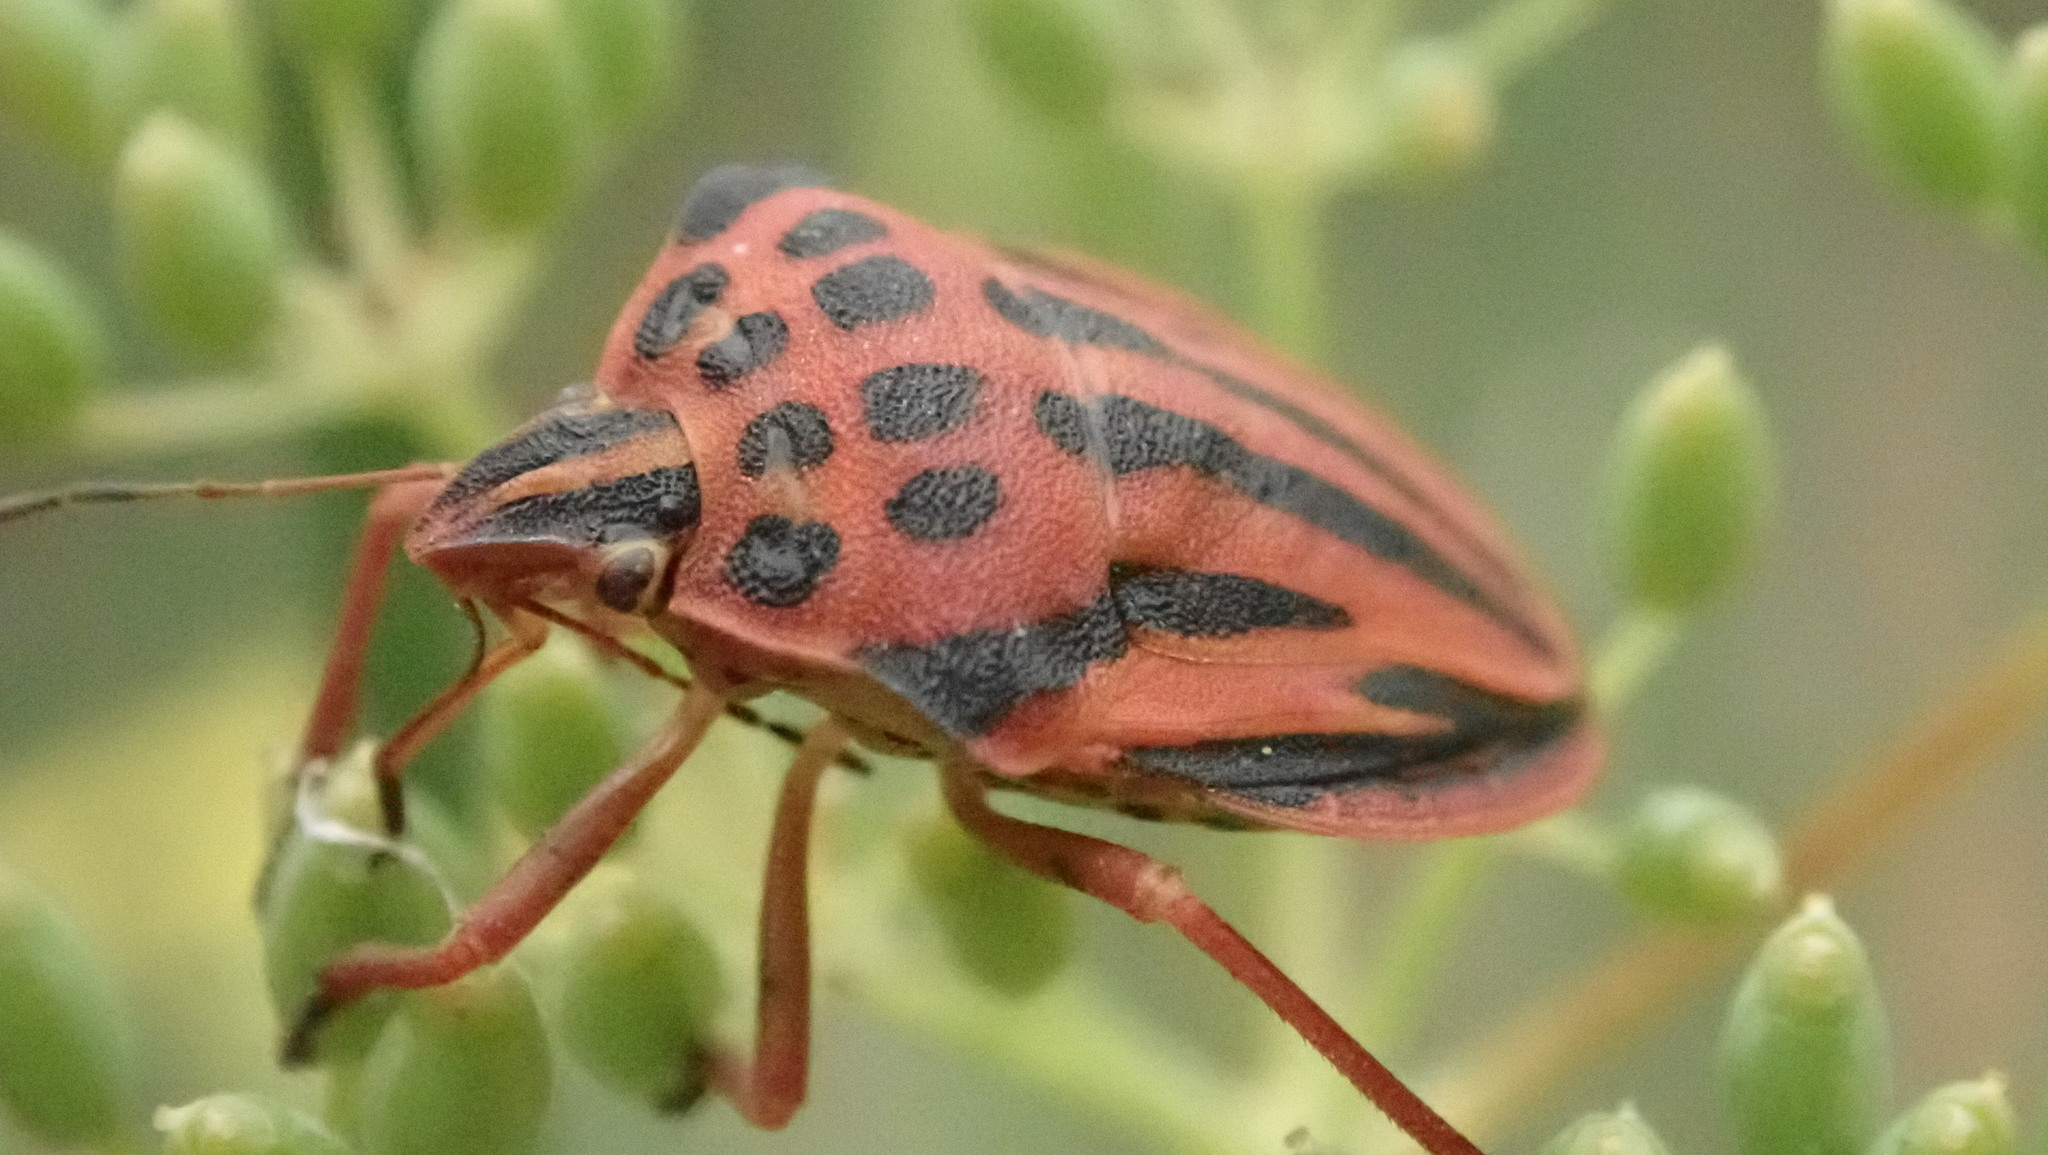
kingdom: Animalia
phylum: Arthropoda
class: Insecta
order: Hemiptera
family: Pentatomidae
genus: Graphosoma
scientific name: Graphosoma semipunctatum
